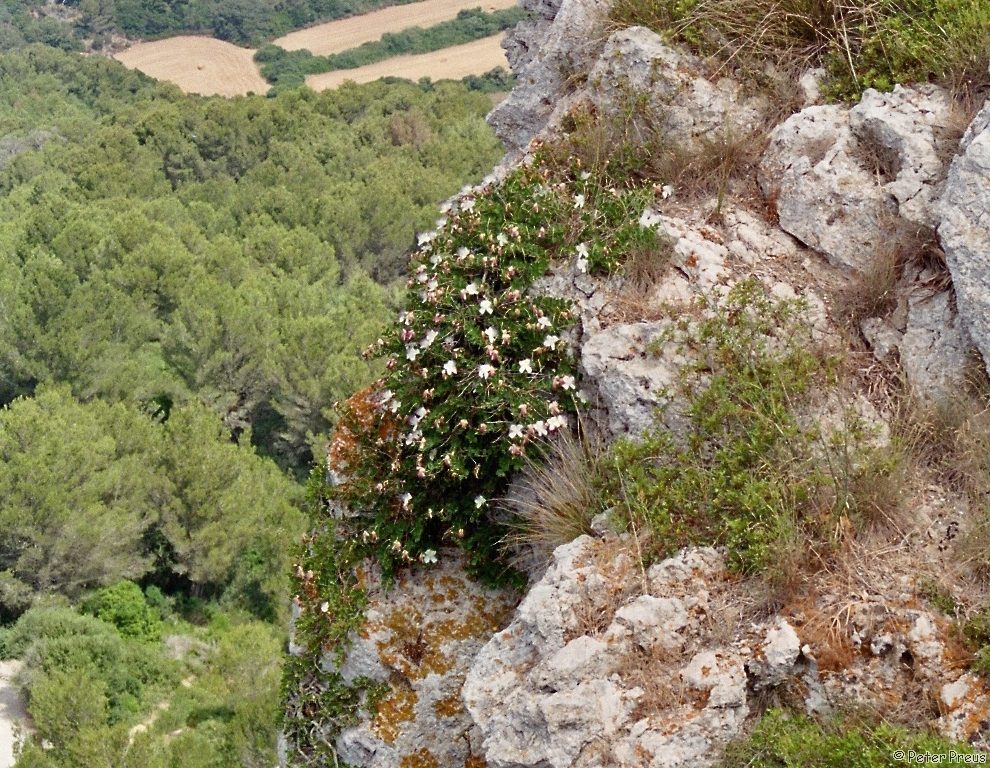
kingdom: Plantae
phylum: Tracheophyta
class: Magnoliopsida
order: Brassicales
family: Capparaceae
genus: Capparis
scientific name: Capparis spinosa
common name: Caper
